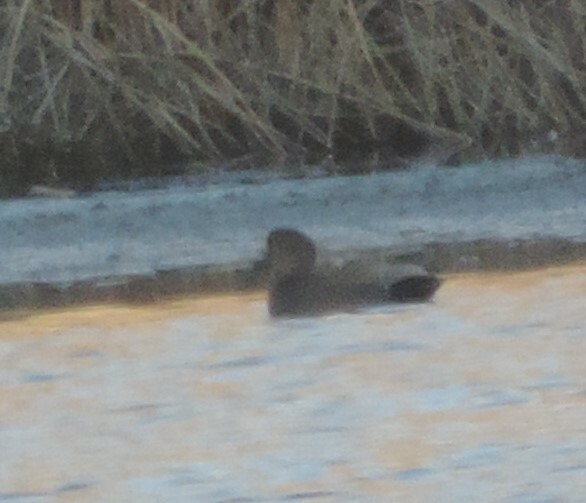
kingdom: Animalia
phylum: Chordata
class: Aves
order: Anseriformes
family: Anatidae
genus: Mareca
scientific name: Mareca strepera
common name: Gadwall
